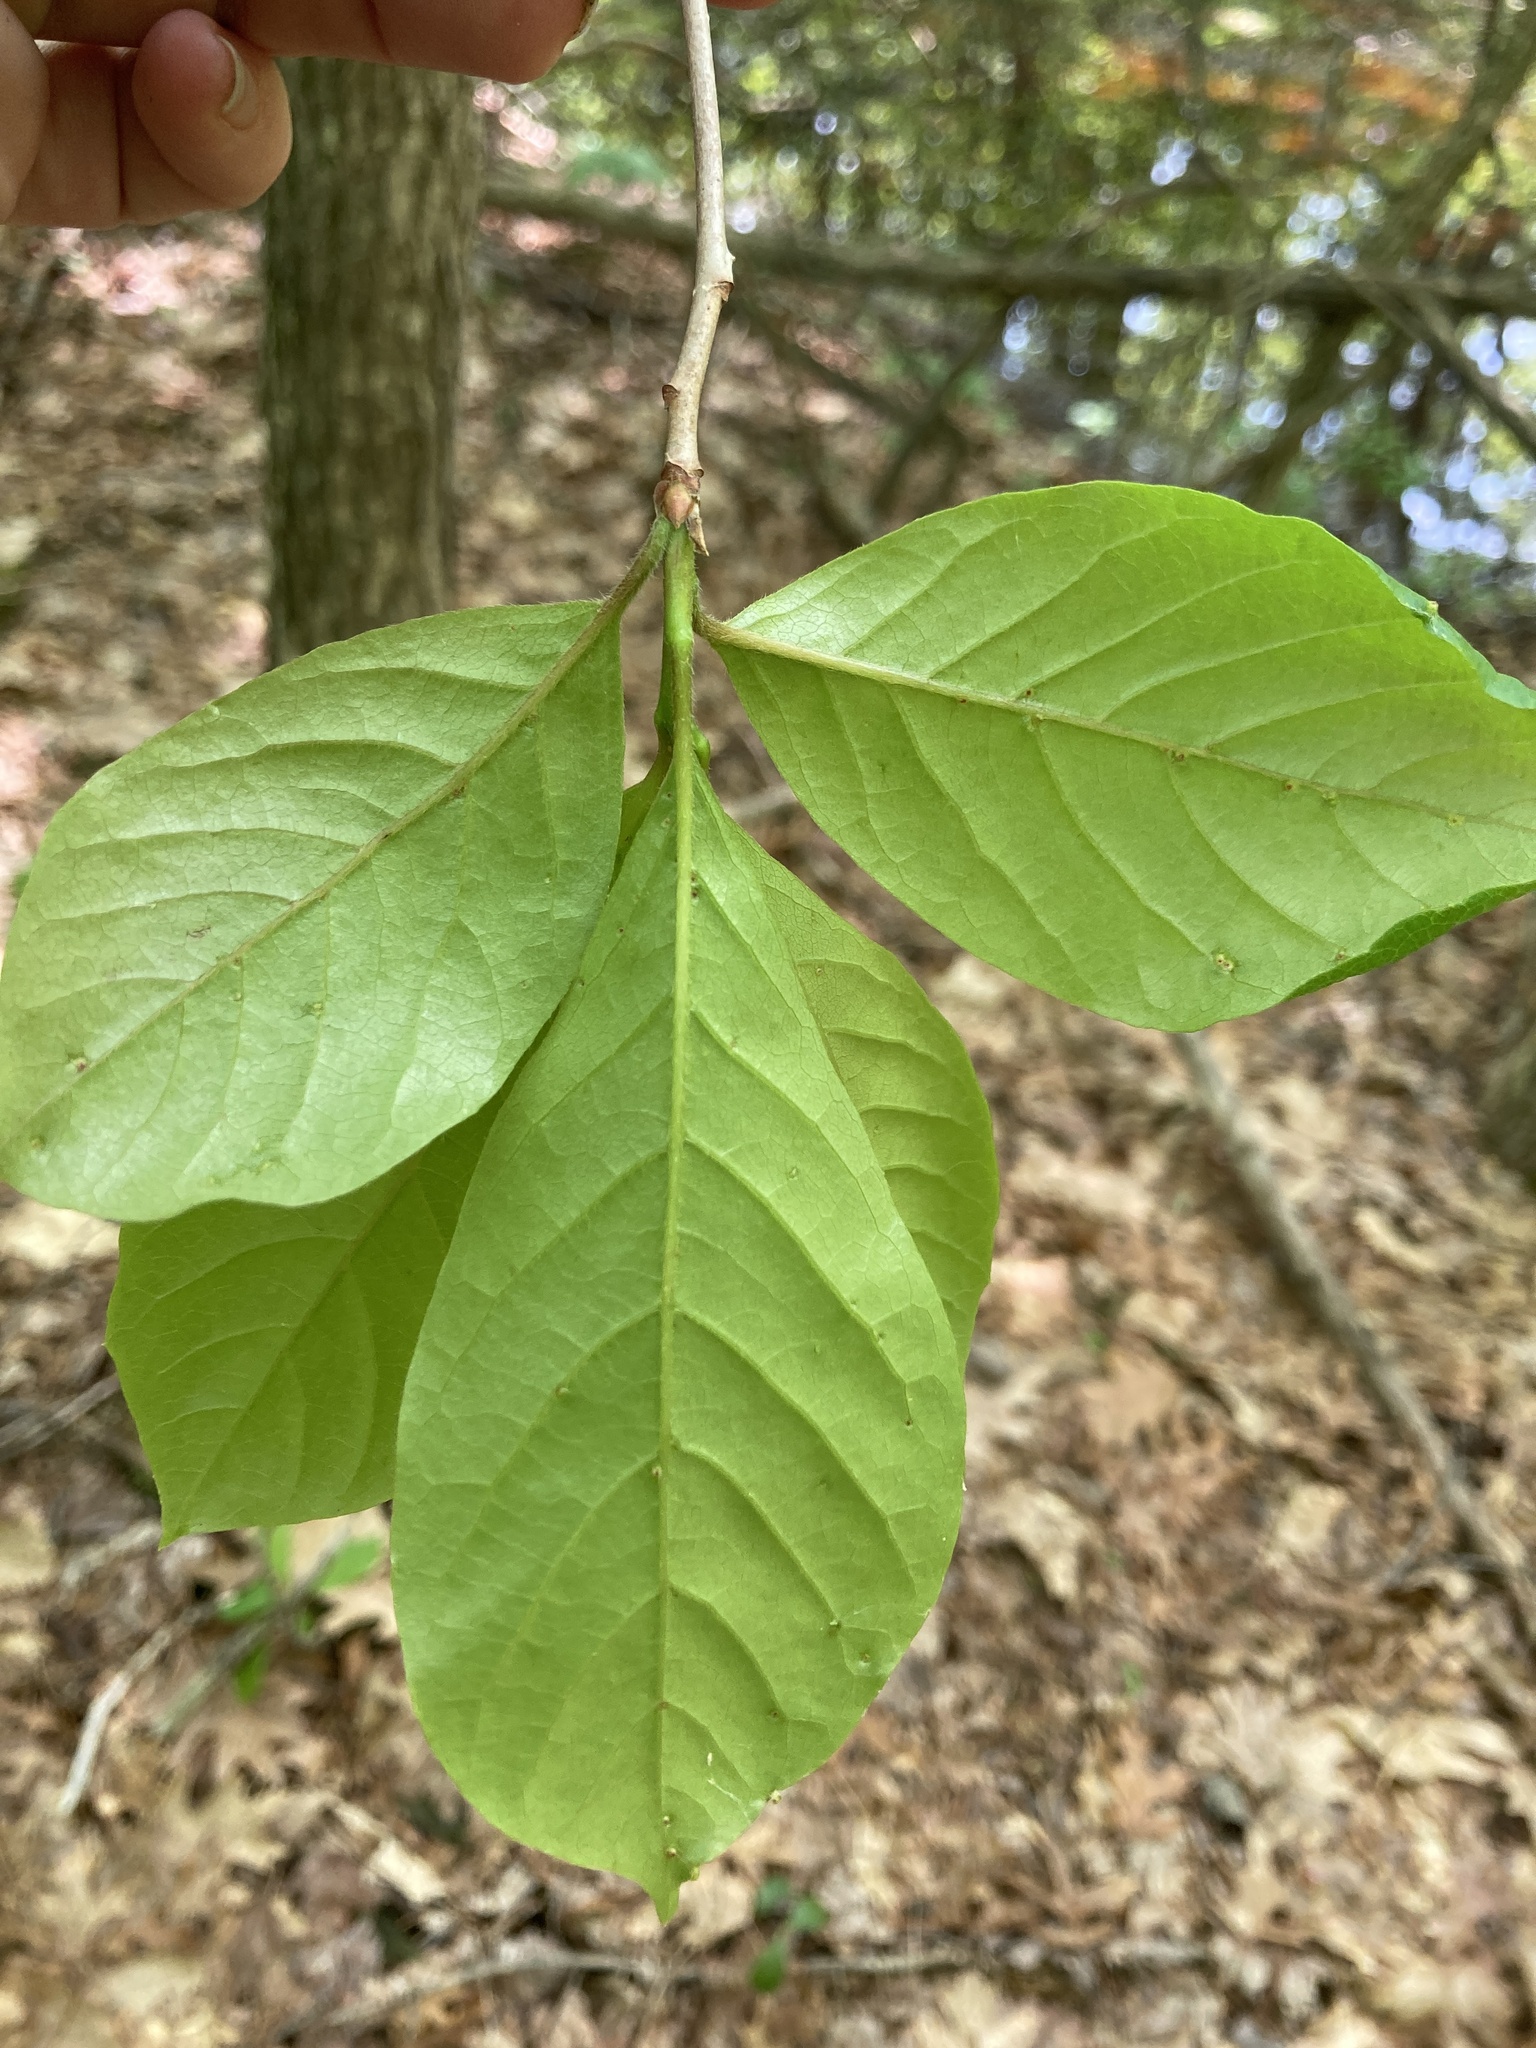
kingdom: Plantae
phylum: Tracheophyta
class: Magnoliopsida
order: Cornales
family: Nyssaceae
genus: Nyssa
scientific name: Nyssa sylvatica
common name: Black tupelo
